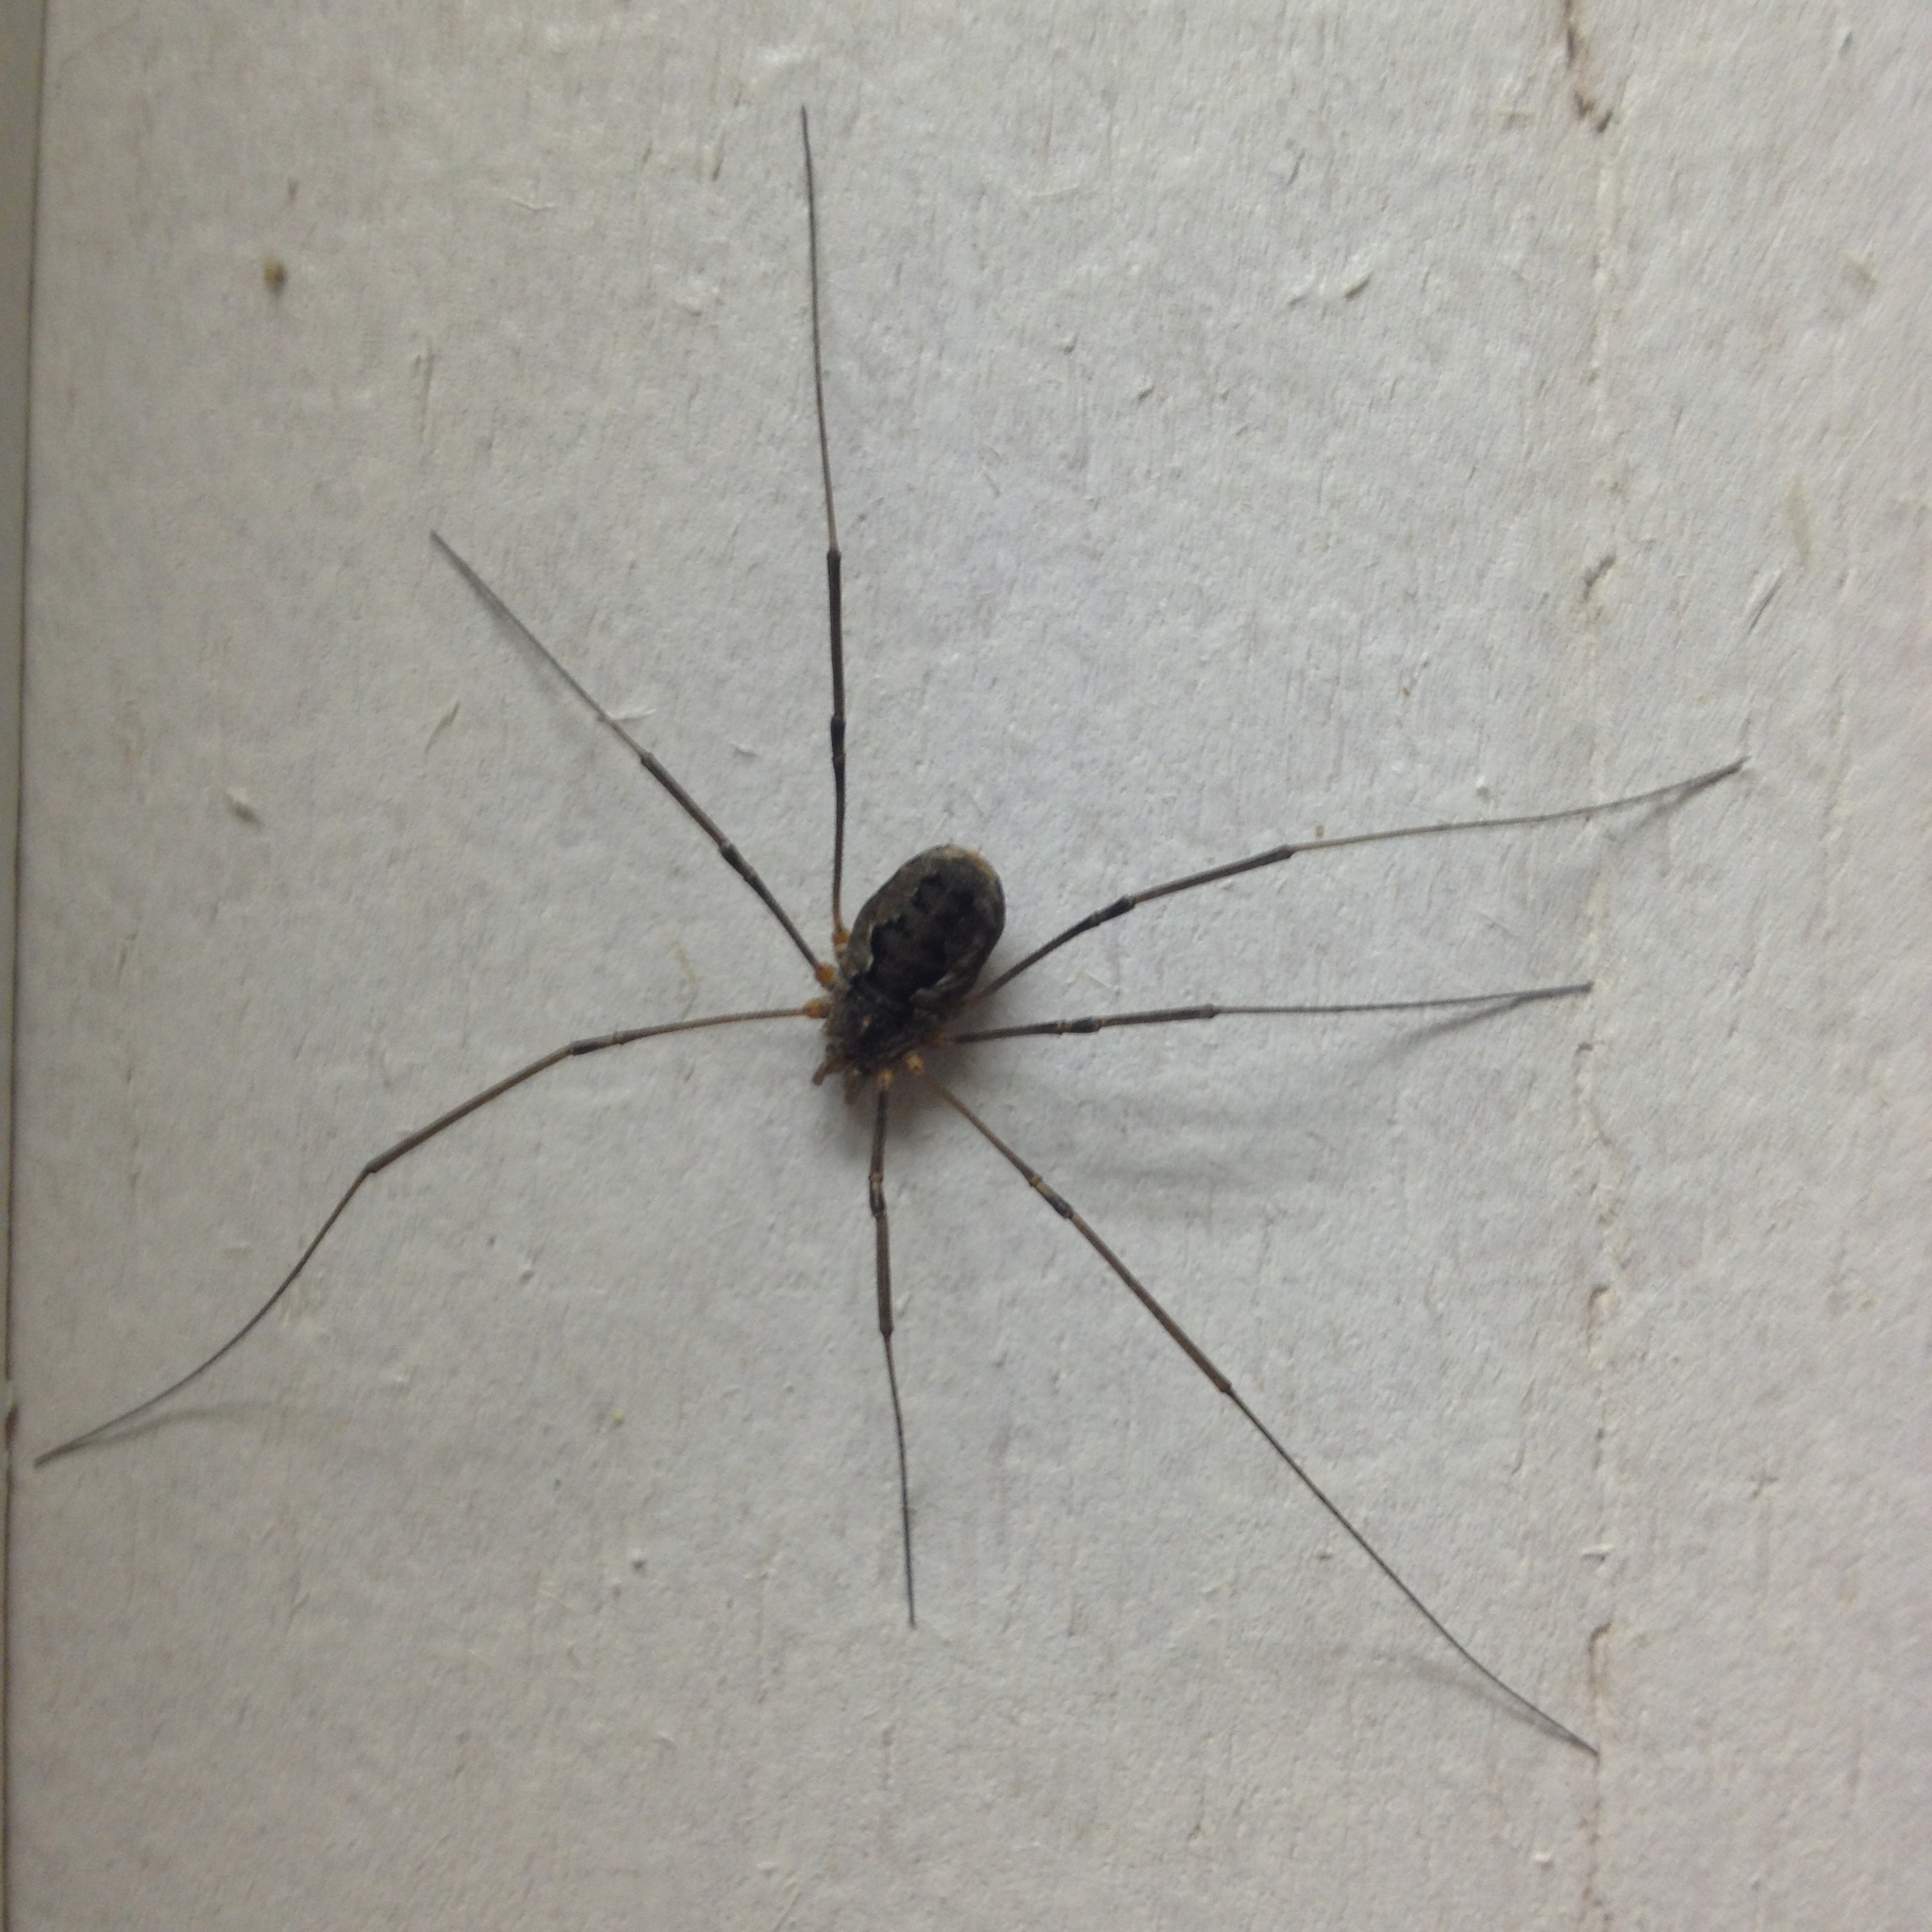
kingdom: Animalia
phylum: Arthropoda
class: Arachnida
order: Opiliones
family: Phalangiidae
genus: Phalangium
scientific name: Phalangium opilio
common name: Daddy longleg
